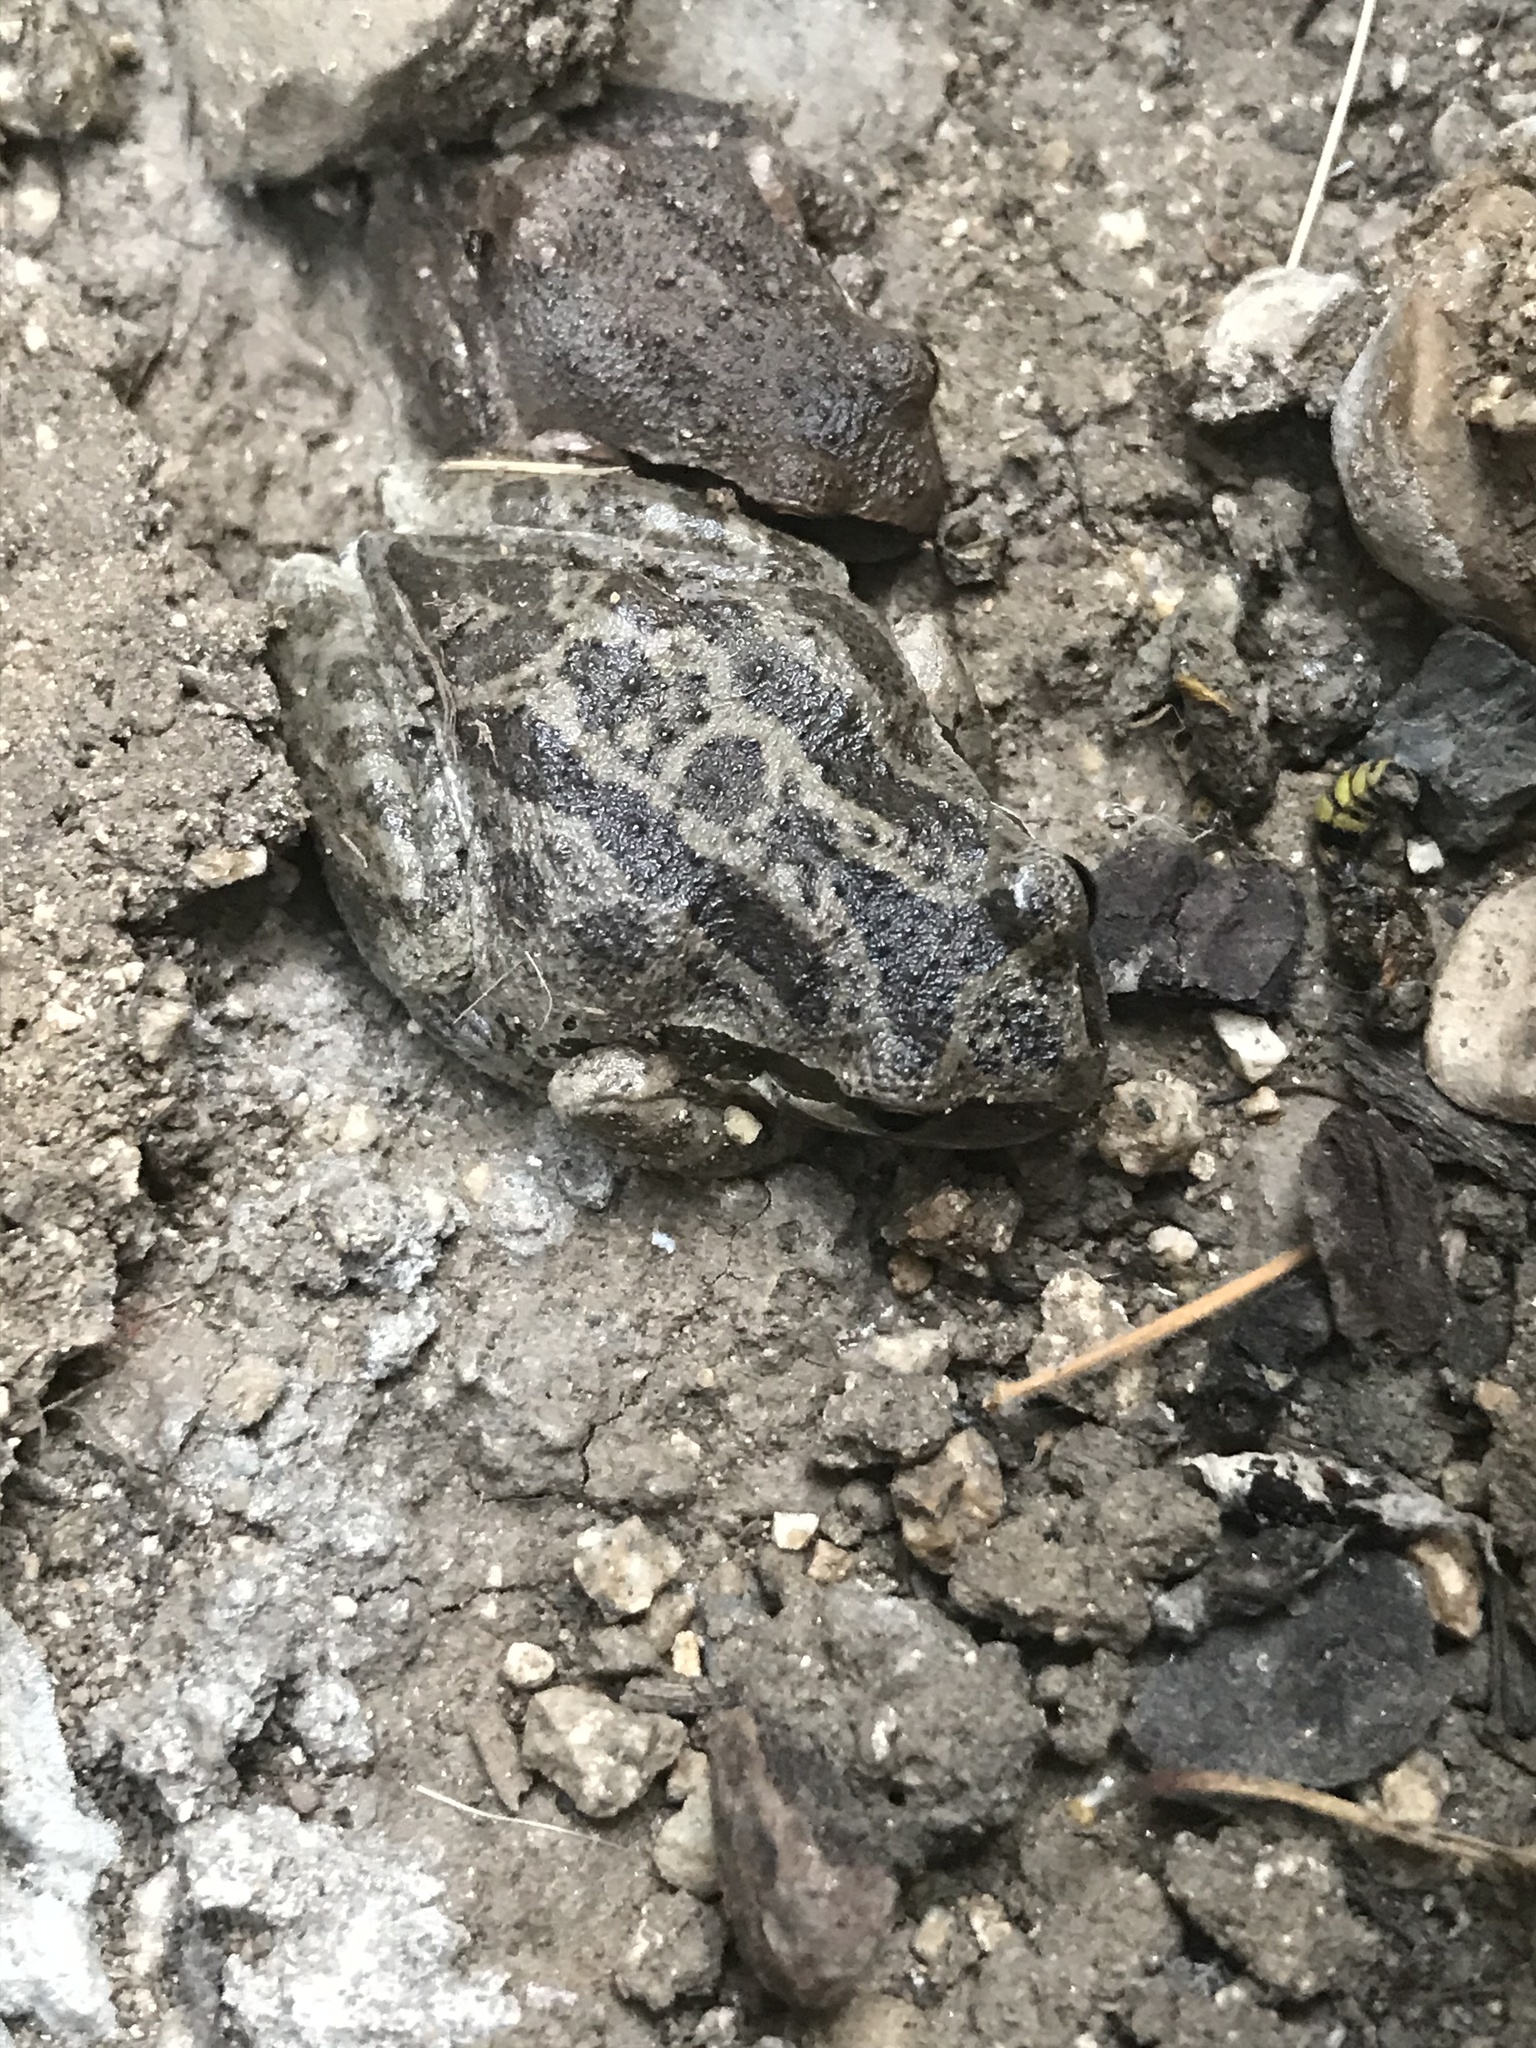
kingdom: Animalia
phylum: Chordata
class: Amphibia
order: Anura
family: Hylidae
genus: Pseudacris
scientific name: Pseudacris regilla
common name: Pacific chorus frog
